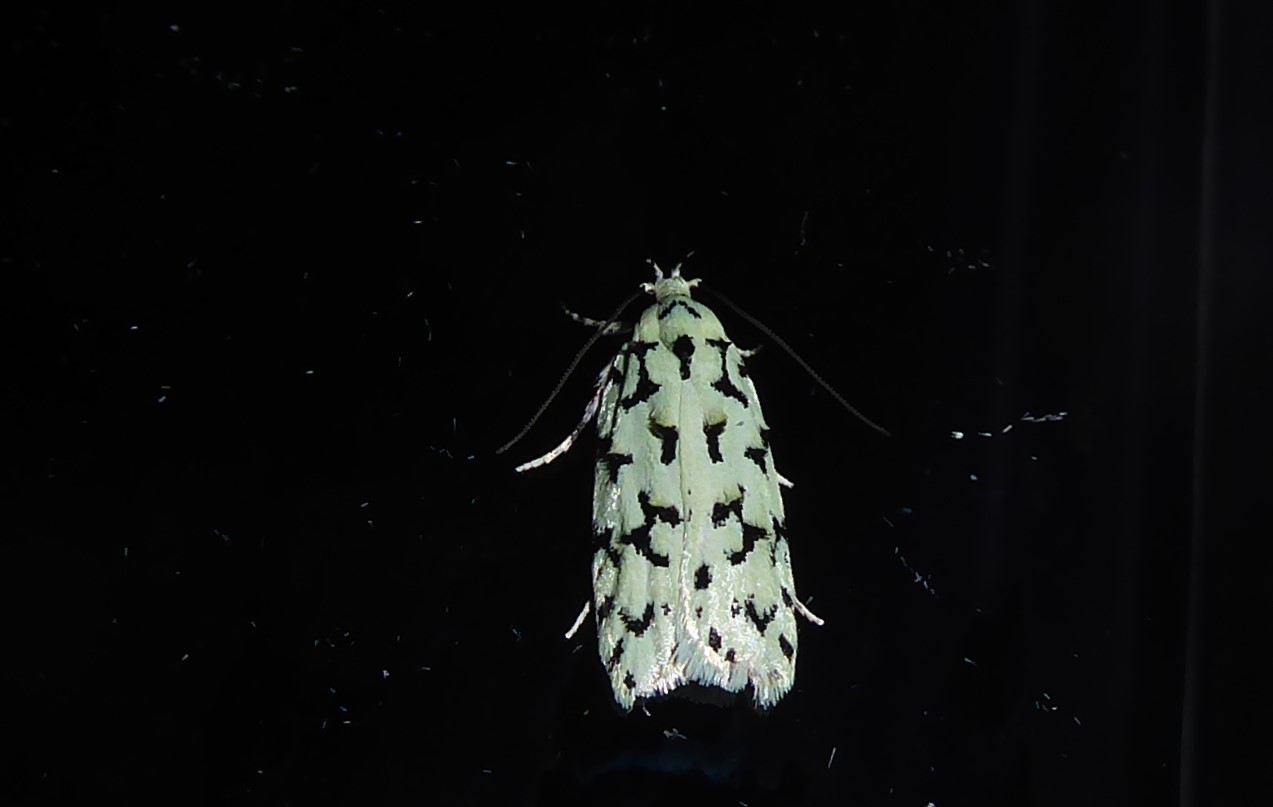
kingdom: Animalia
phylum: Arthropoda
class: Insecta
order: Lepidoptera
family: Oecophoridae
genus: Izatha
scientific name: Izatha huttoni
